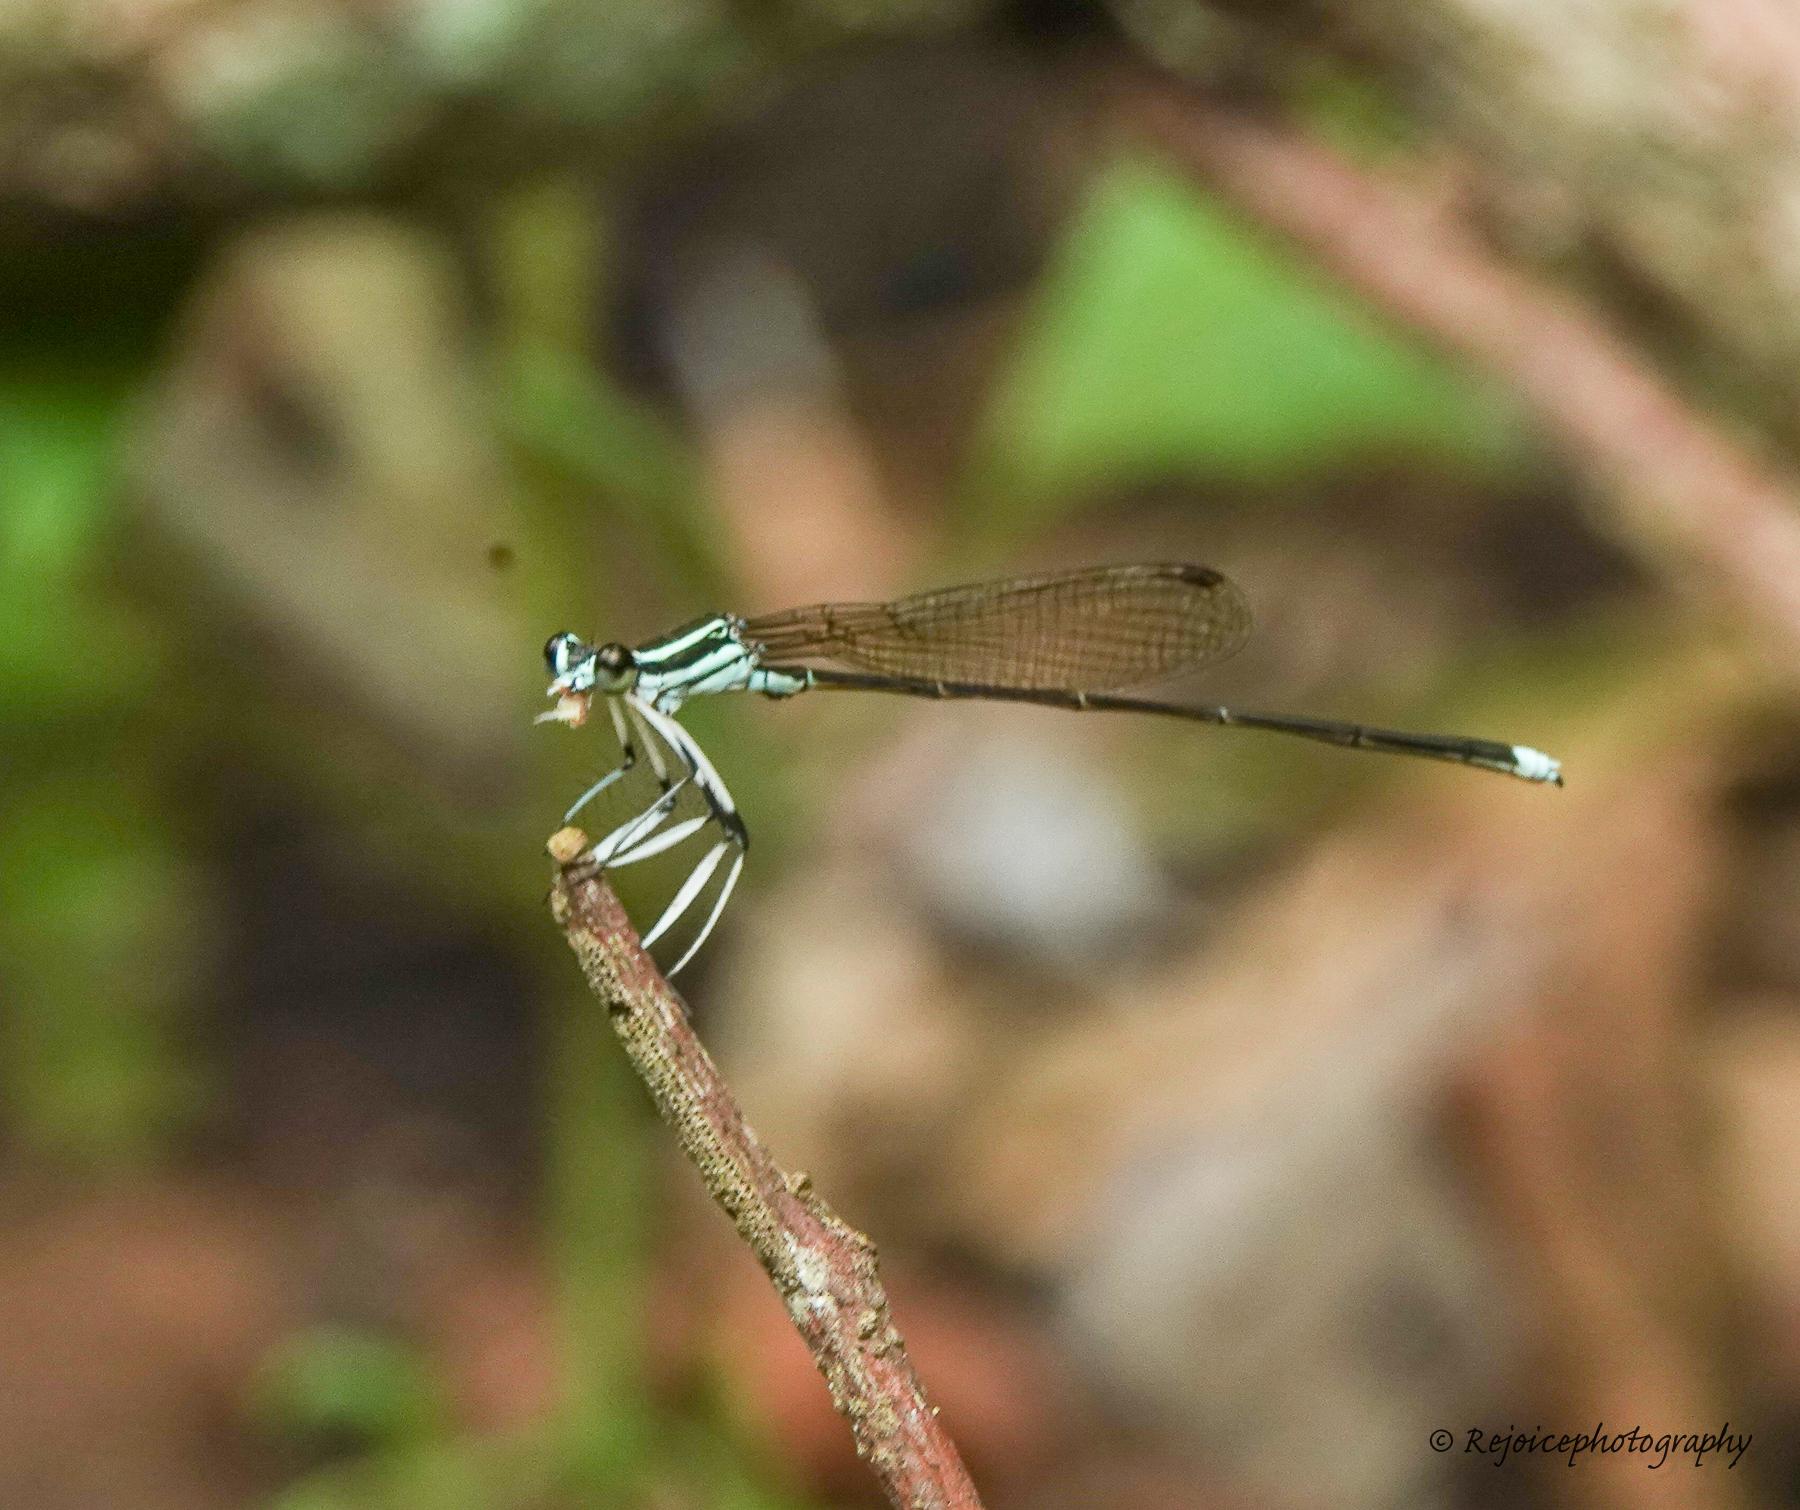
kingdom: Animalia
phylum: Arthropoda
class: Insecta
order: Odonata
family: Platycnemididae
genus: Pseudocopera
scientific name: Pseudocopera ciliata
